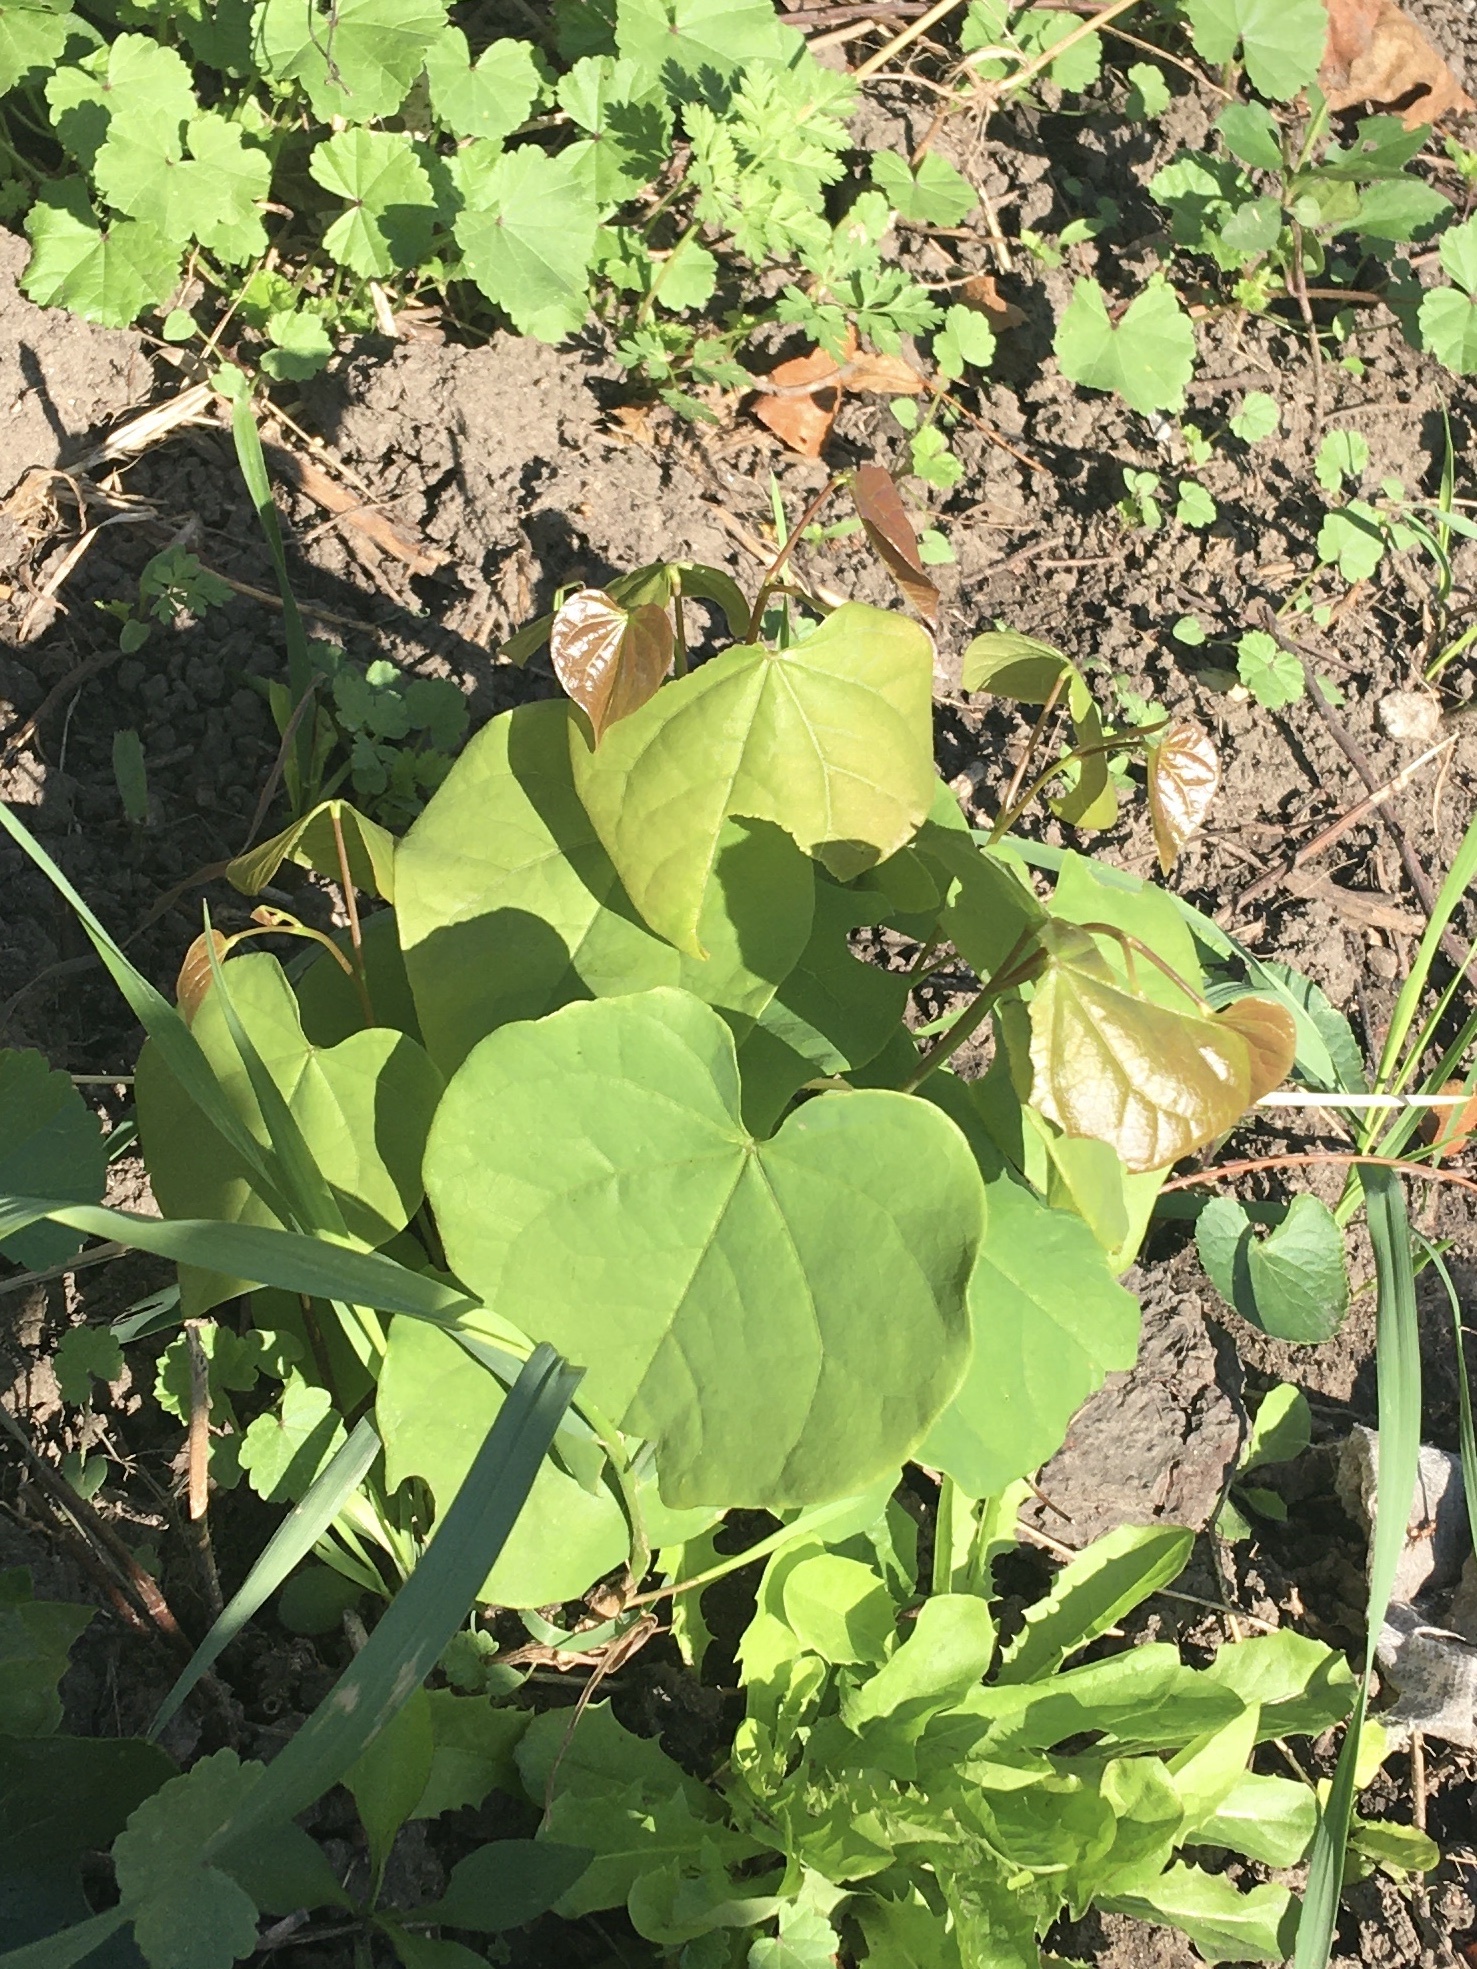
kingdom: Plantae
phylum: Tracheophyta
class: Magnoliopsida
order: Fabales
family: Fabaceae
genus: Cercis
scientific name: Cercis canadensis
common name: Eastern redbud
